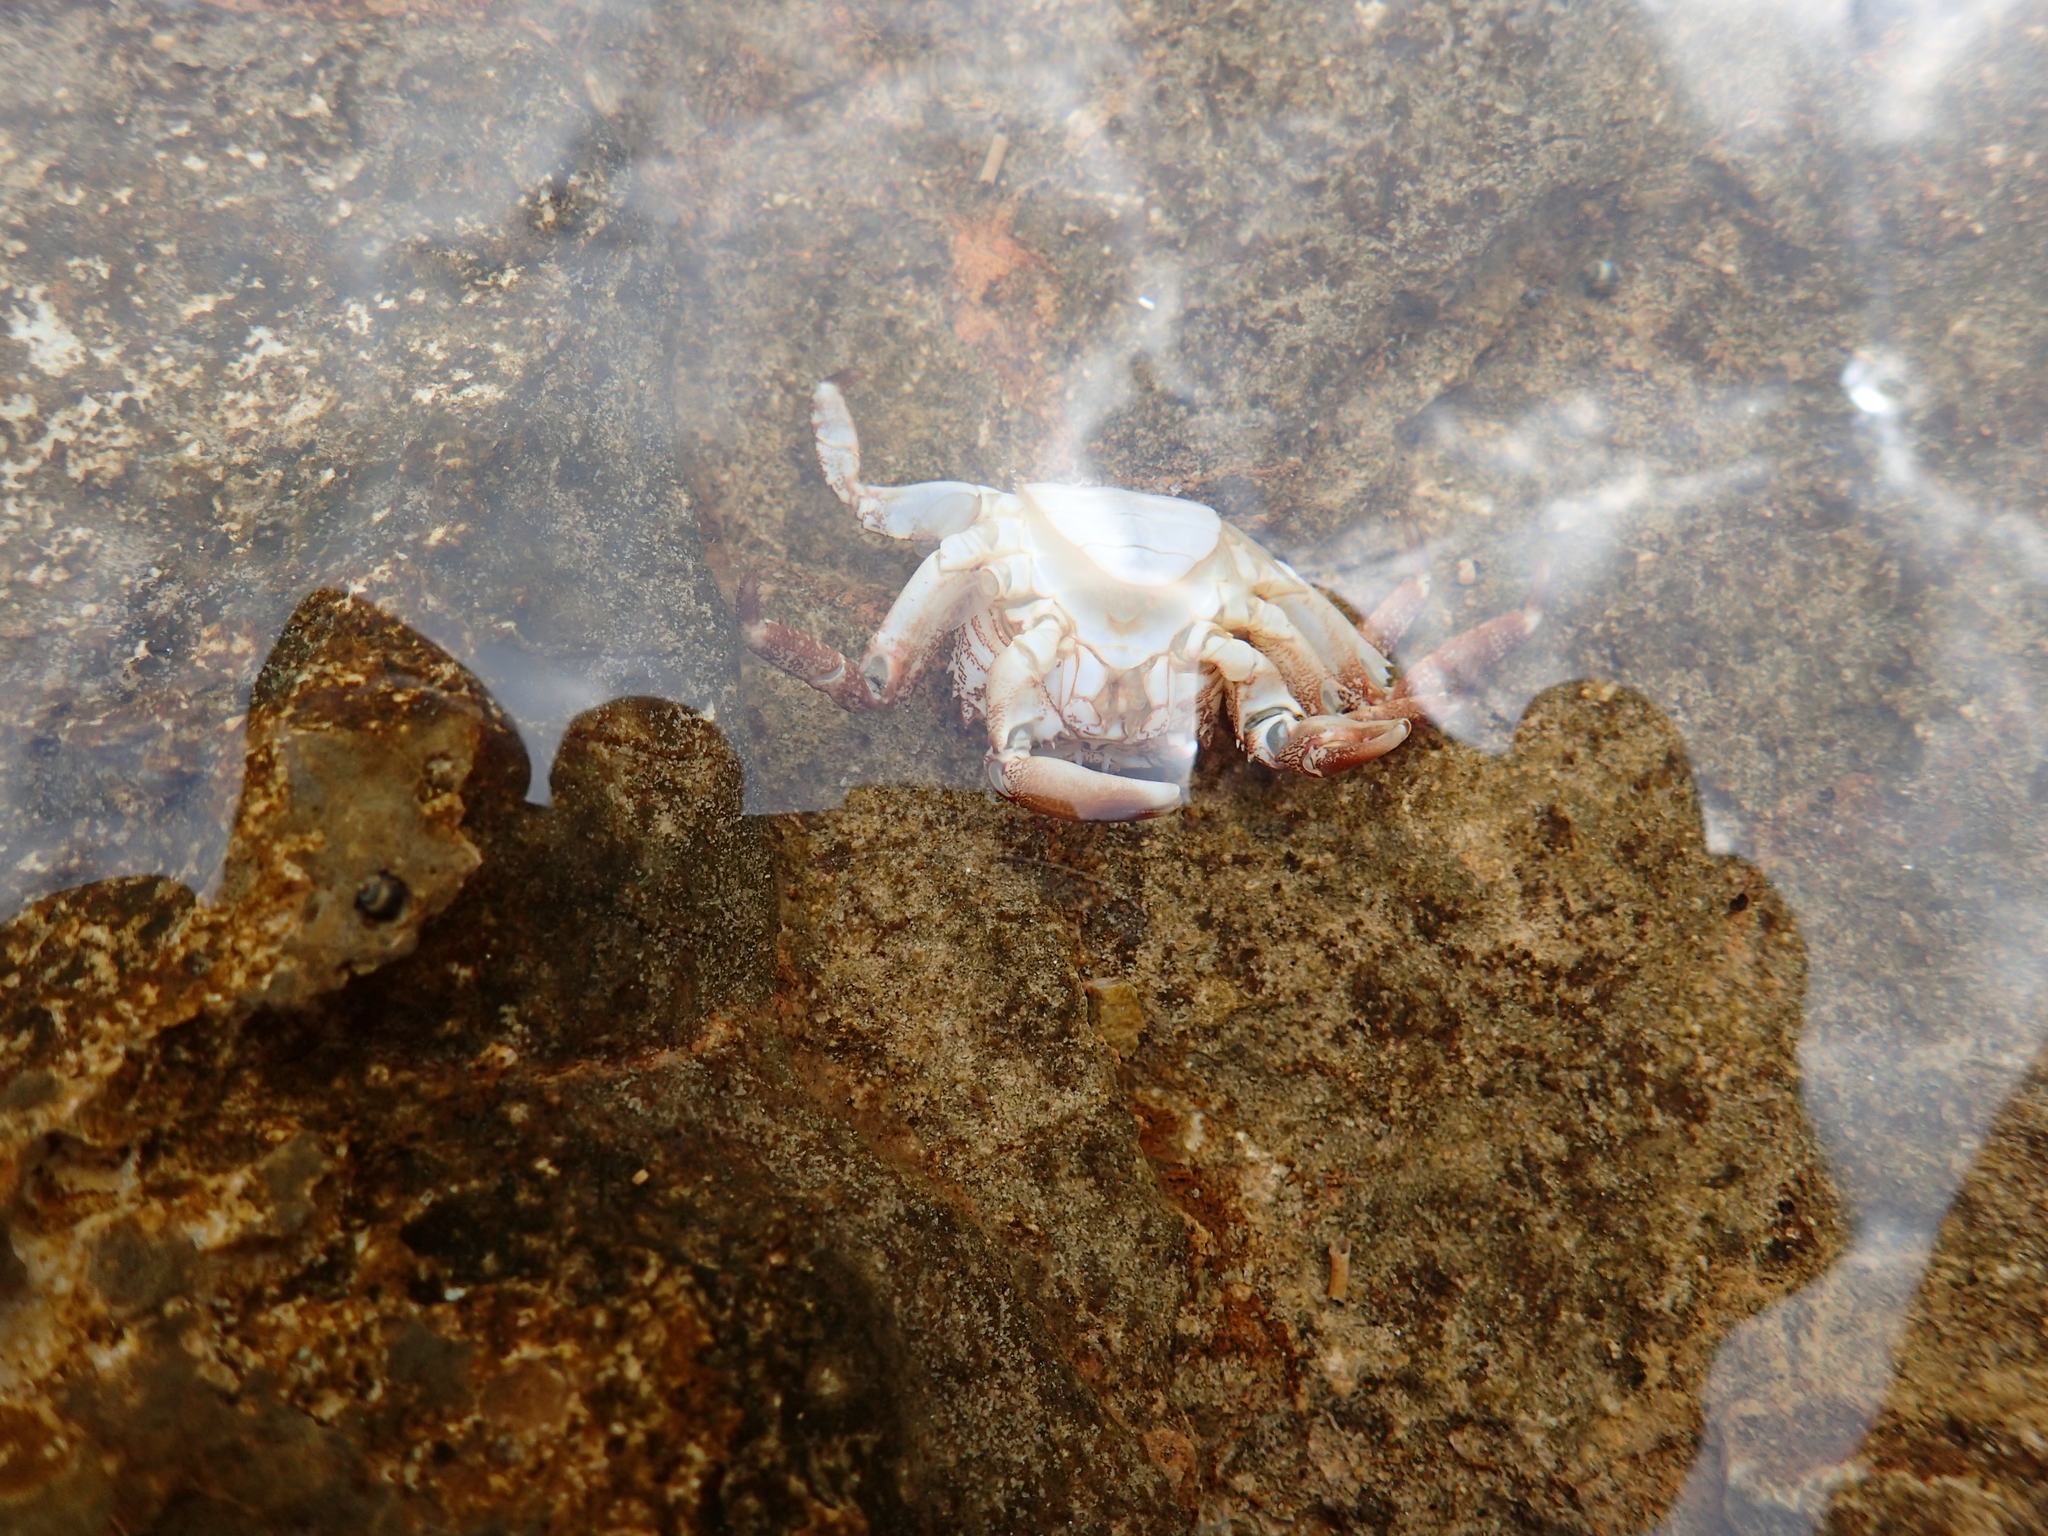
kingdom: Animalia
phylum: Arthropoda
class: Malacostraca
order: Decapoda
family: Grapsidae
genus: Pachygrapsus
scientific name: Pachygrapsus marmoratus
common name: Marbled rock crab
